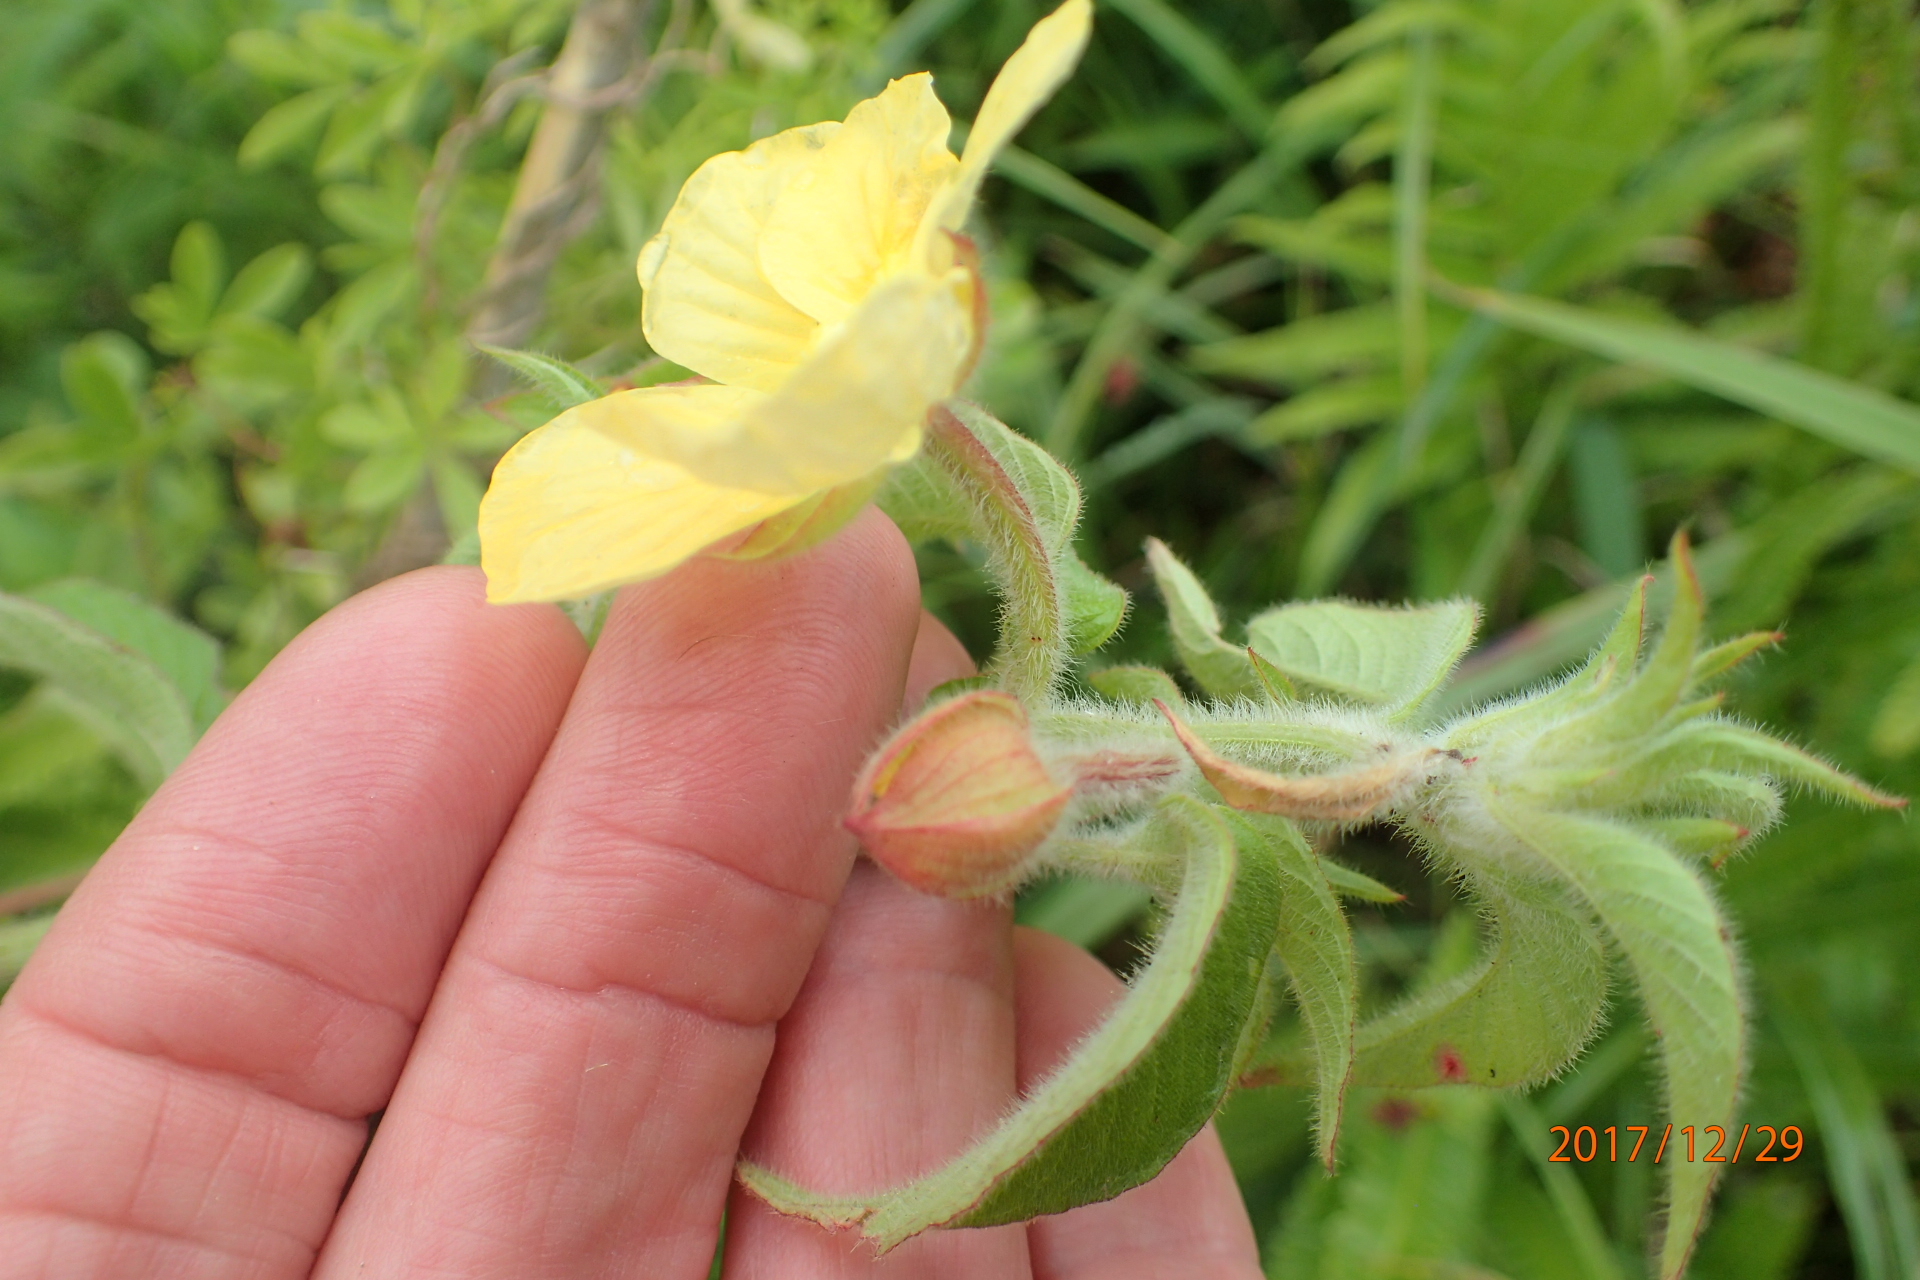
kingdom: Plantae
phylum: Tracheophyta
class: Magnoliopsida
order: Myrtales
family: Onagraceae
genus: Ludwigia
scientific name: Ludwigia octovalvis
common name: Water-primrose
